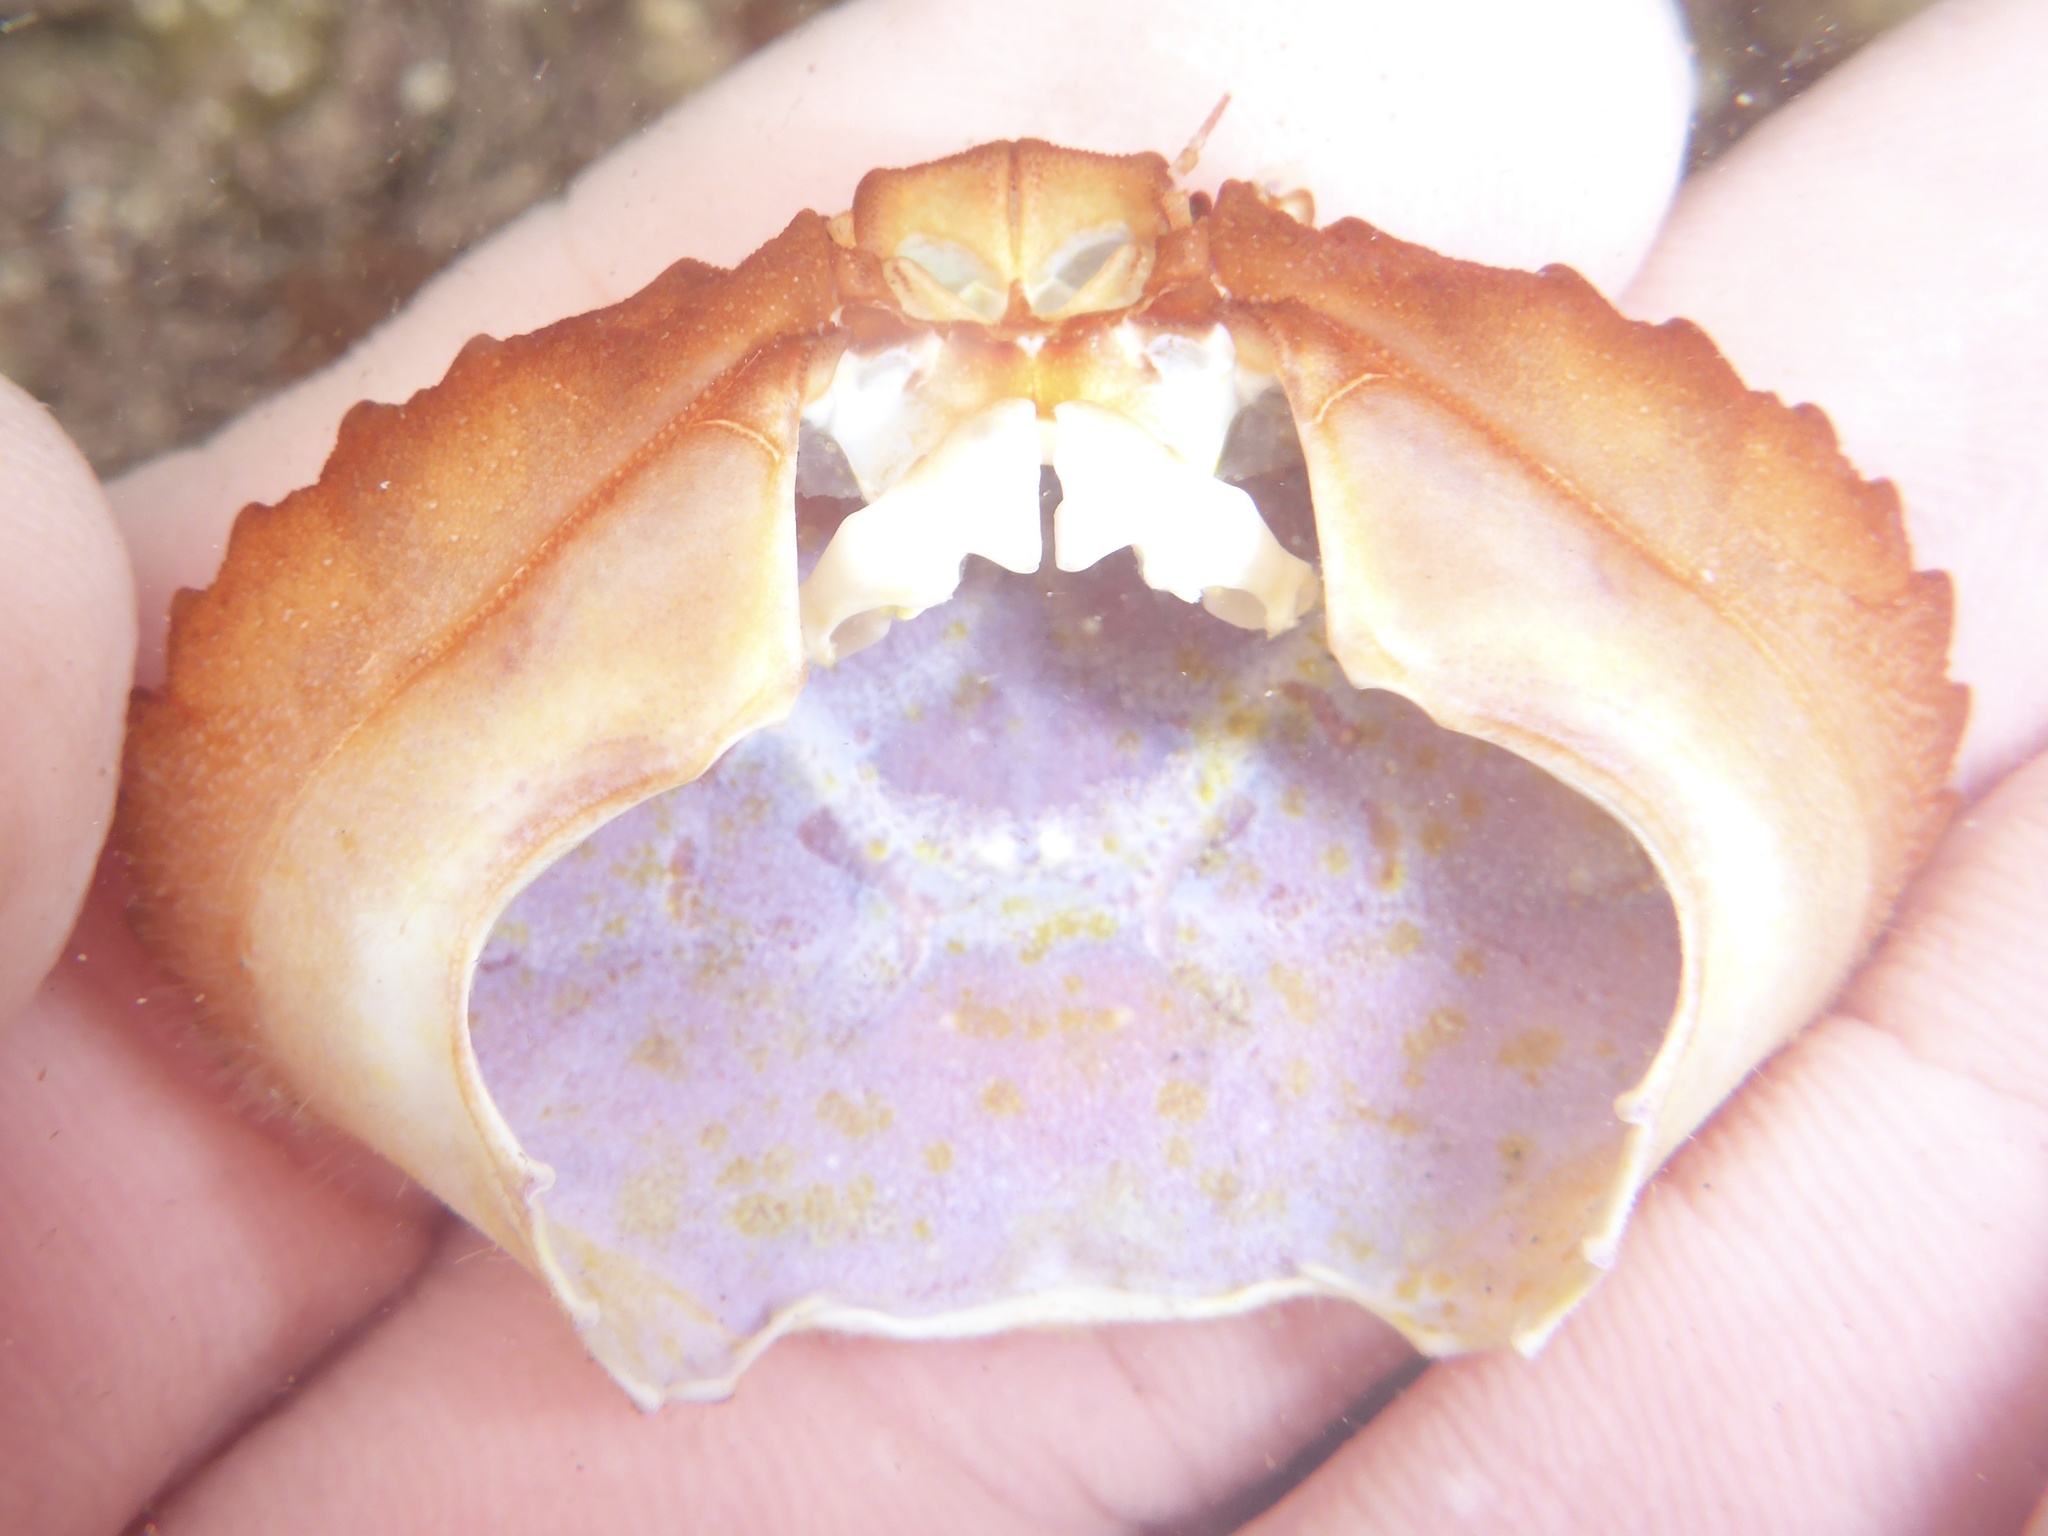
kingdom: Animalia
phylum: Arthropoda
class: Malacostraca
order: Decapoda
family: Xanthidae
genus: Cycloxanthops
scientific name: Cycloxanthops novemdentatus
